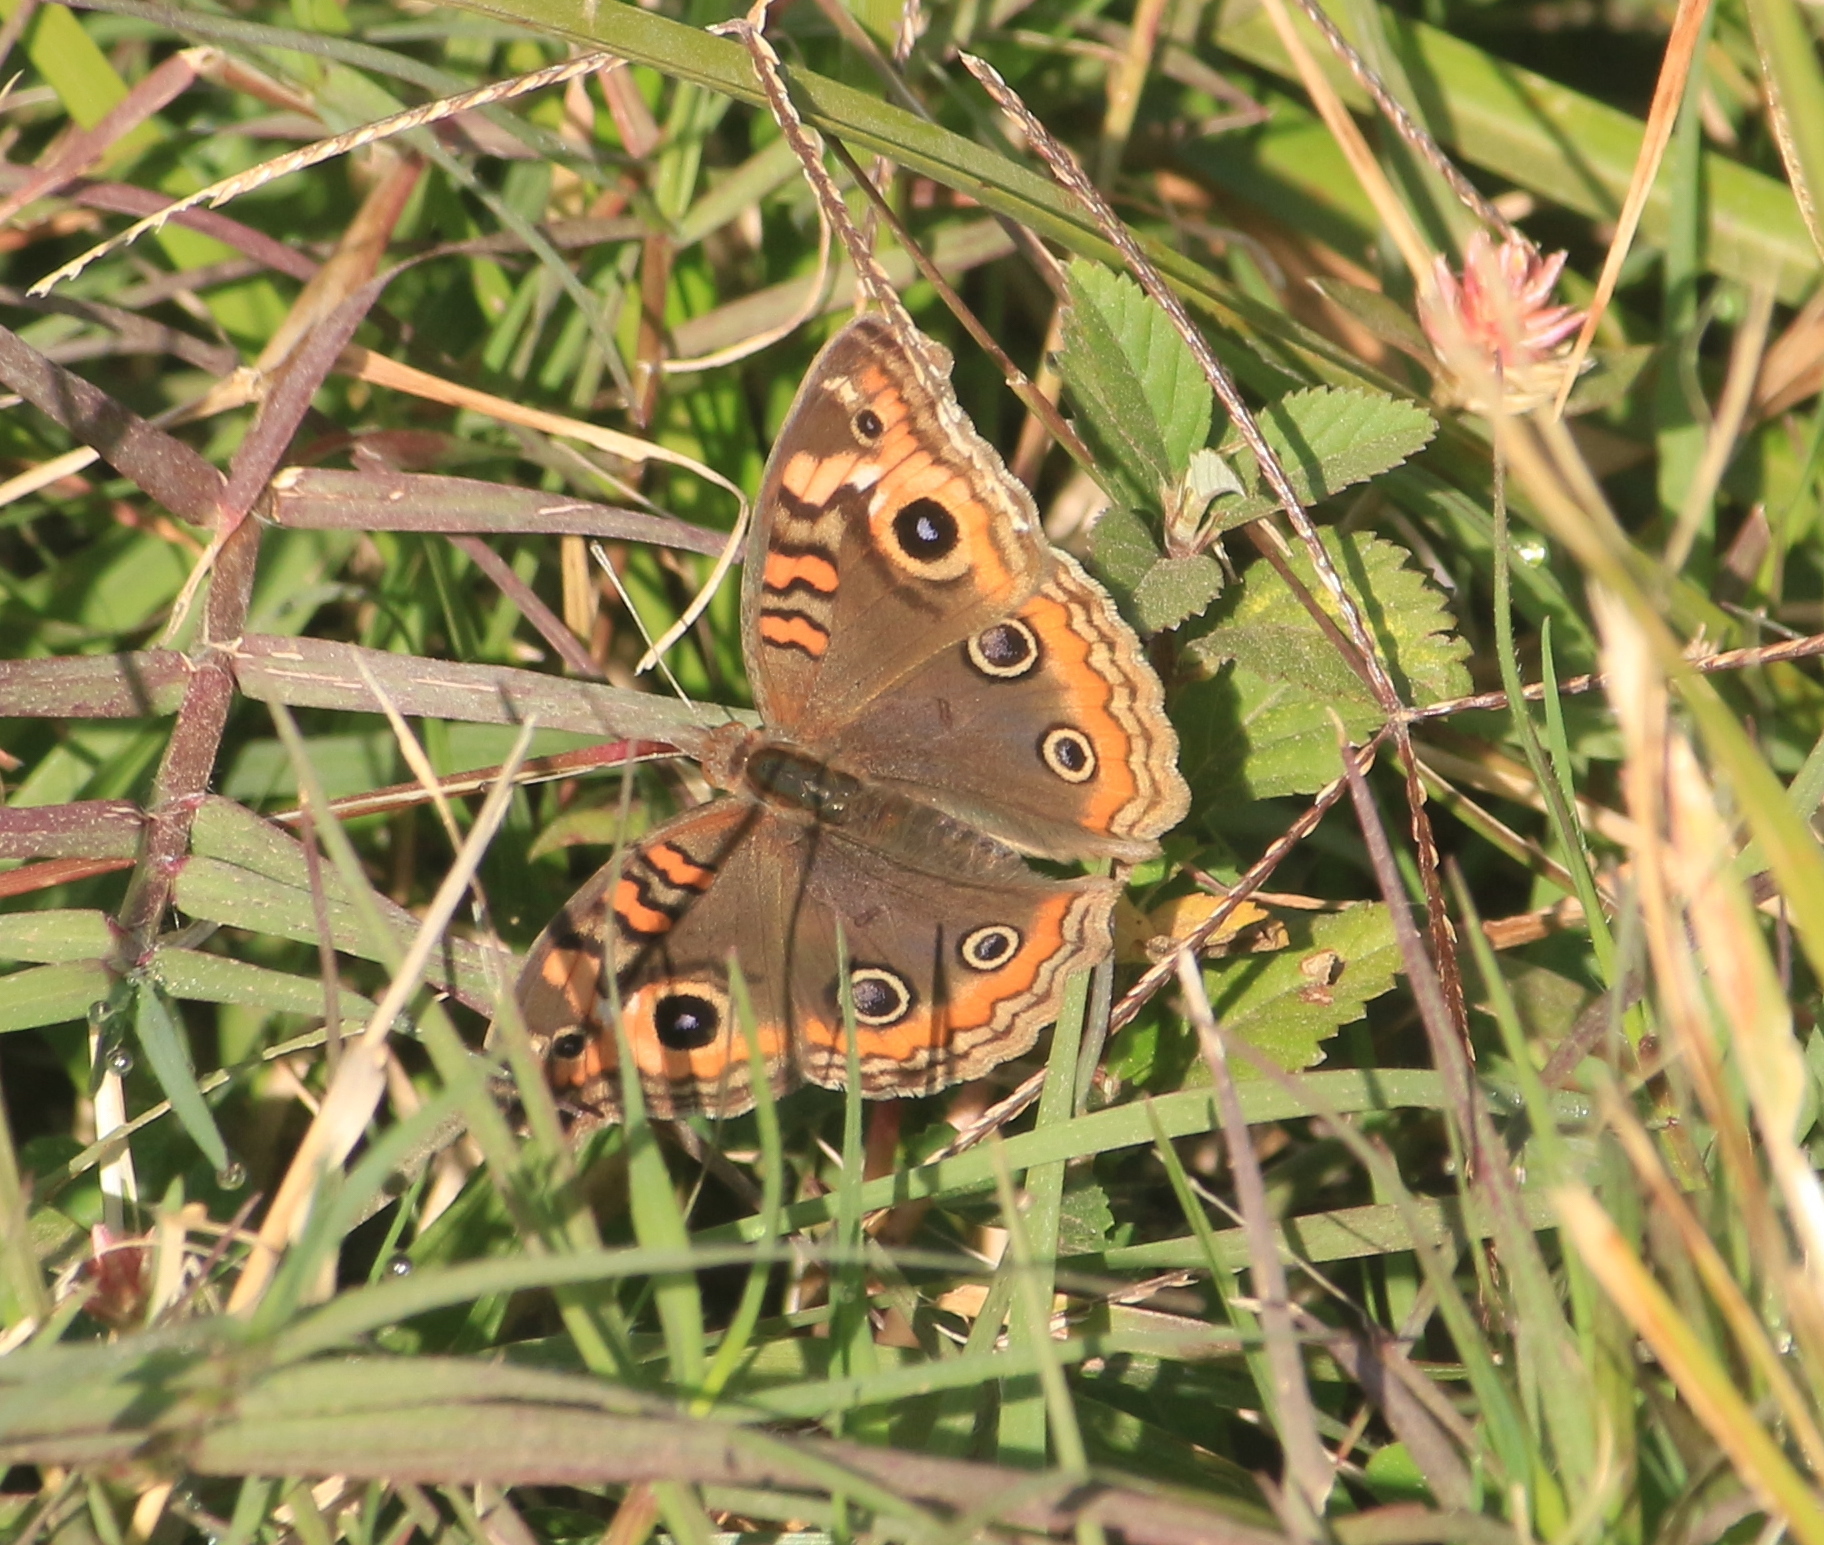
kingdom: Animalia
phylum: Arthropoda
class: Insecta
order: Lepidoptera
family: Nymphalidae
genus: Junonia
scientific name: Junonia lavinia
